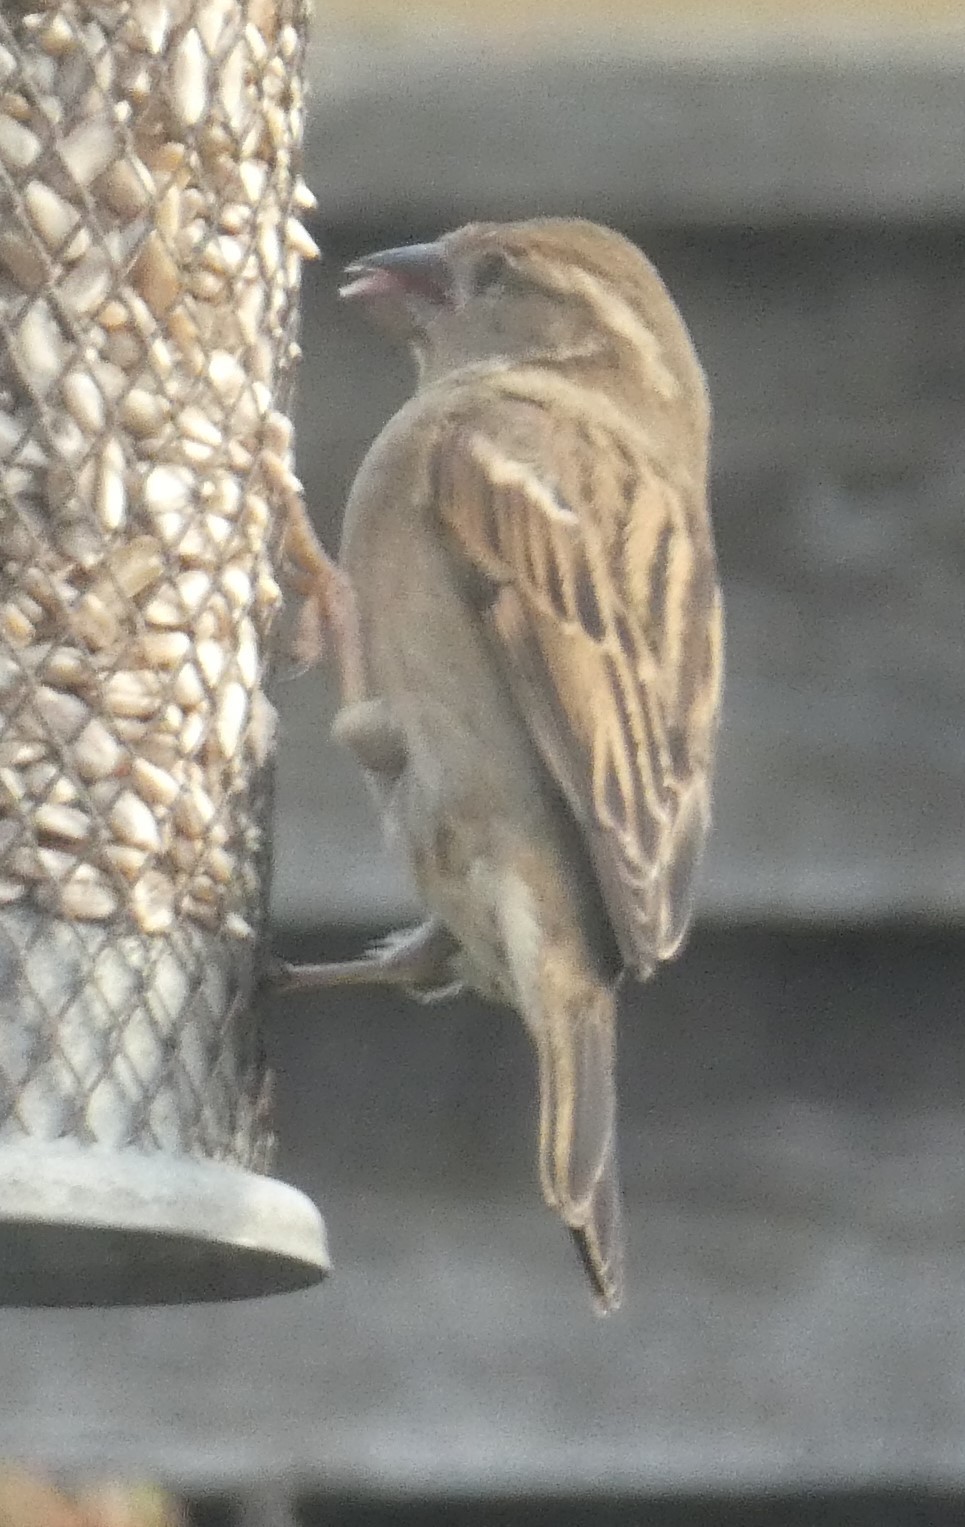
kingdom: Animalia
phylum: Chordata
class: Aves
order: Passeriformes
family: Passeridae
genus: Passer
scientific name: Passer domesticus
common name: House sparrow
